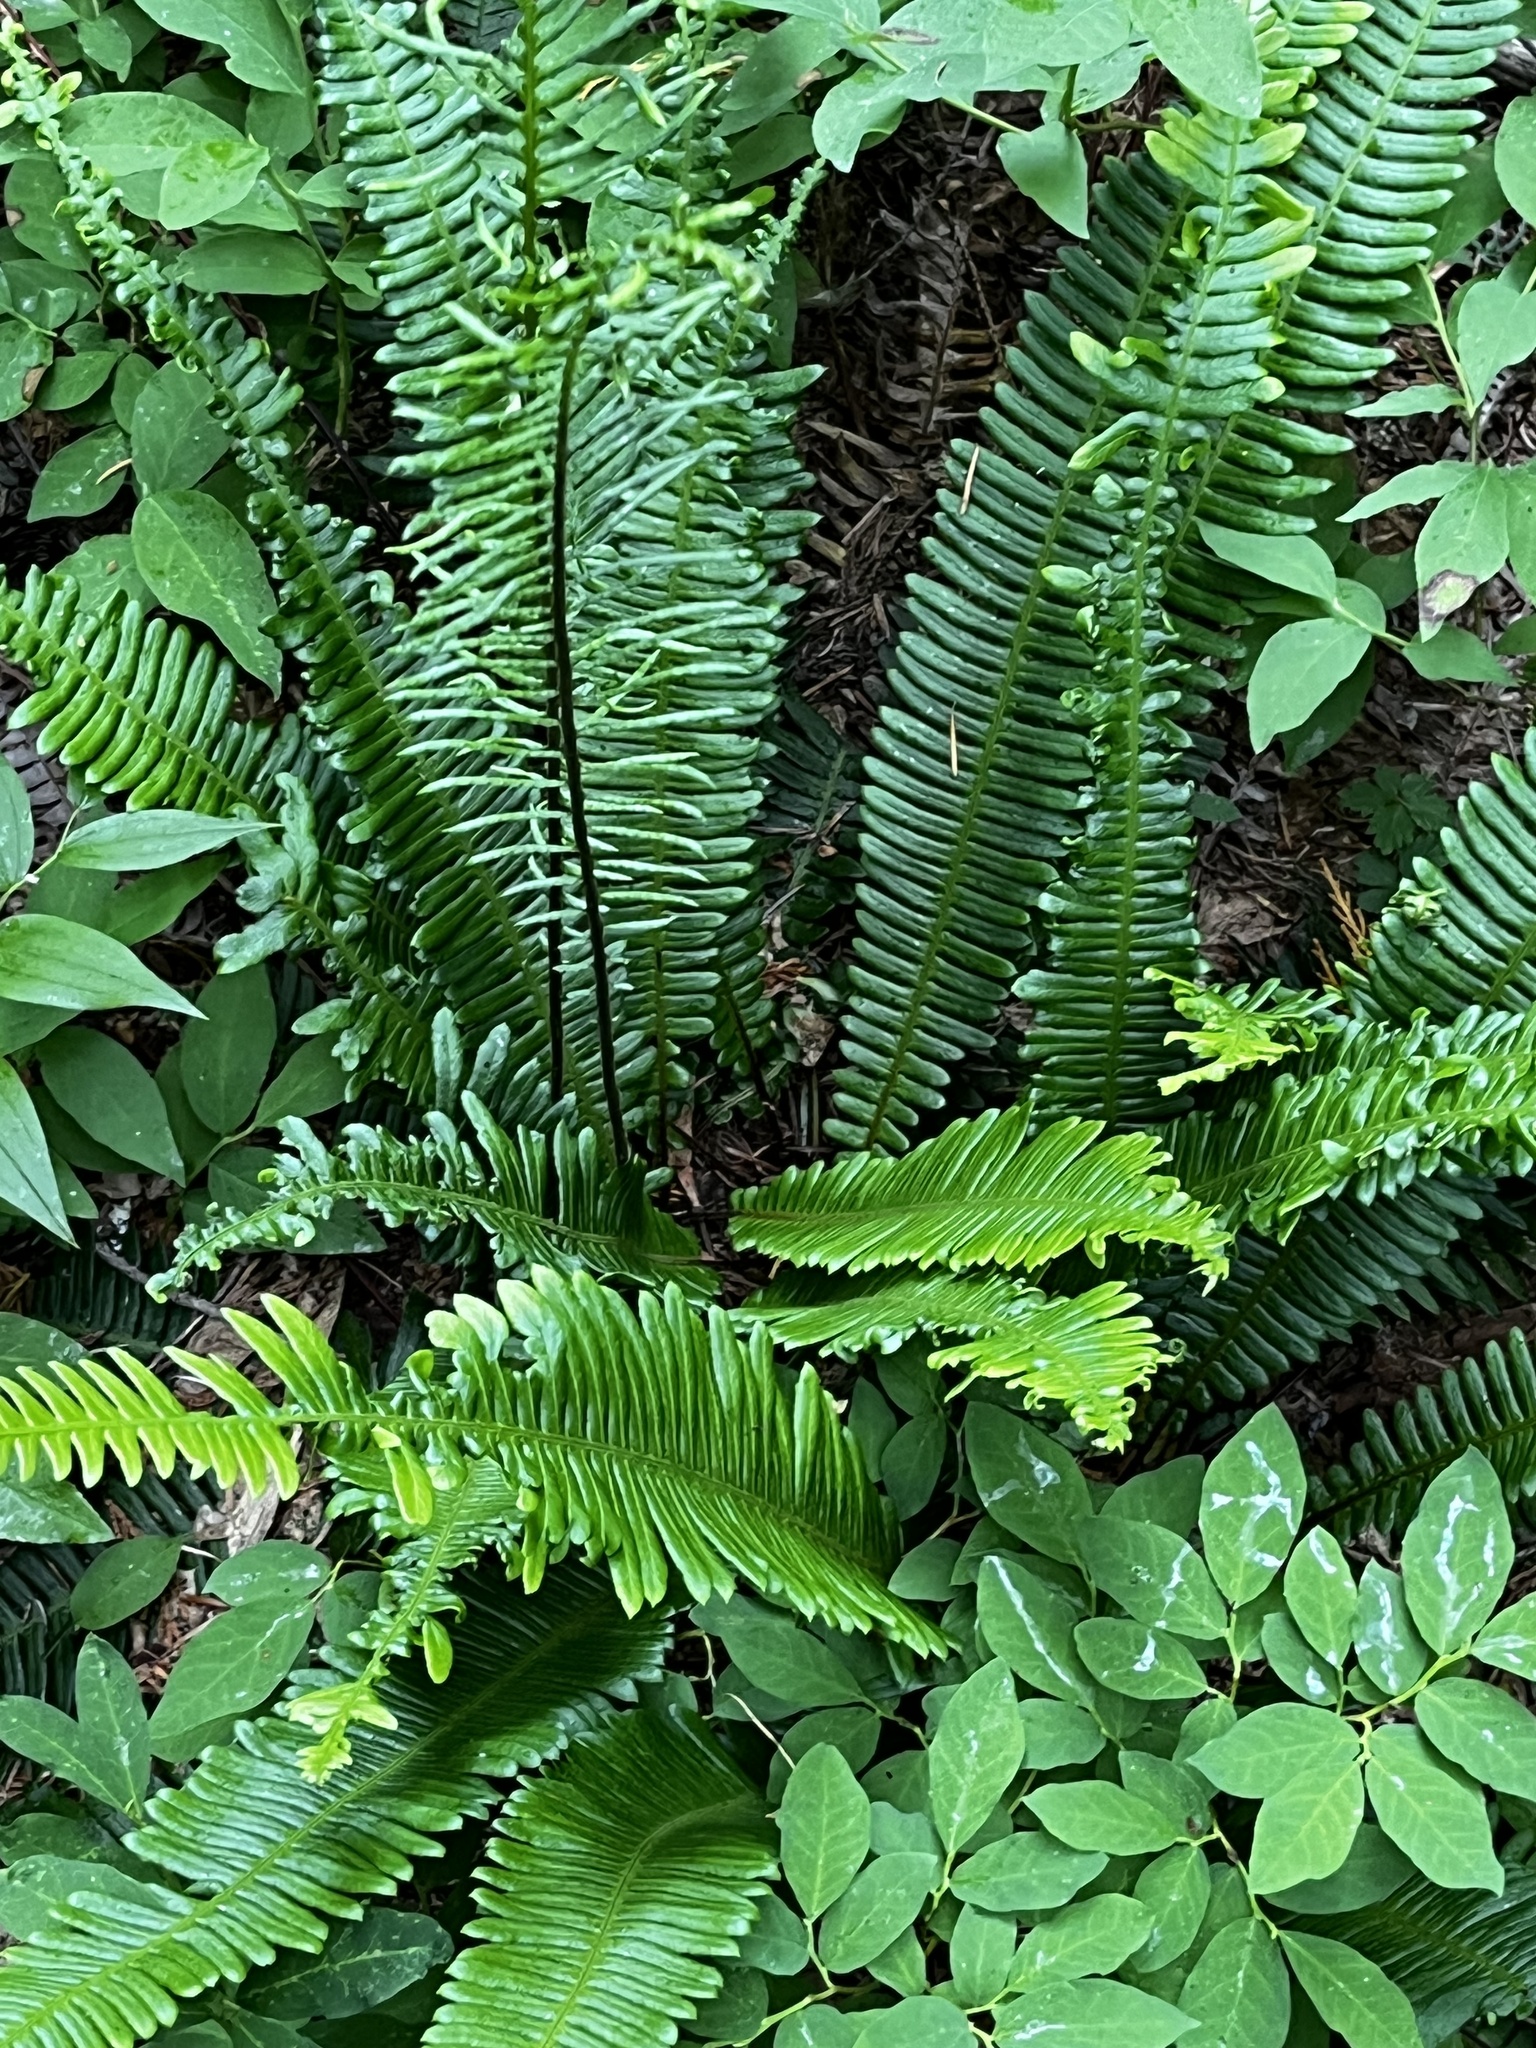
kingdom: Plantae
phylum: Tracheophyta
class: Polypodiopsida
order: Polypodiales
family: Blechnaceae
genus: Struthiopteris
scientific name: Struthiopteris spicant
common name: Deer fern
